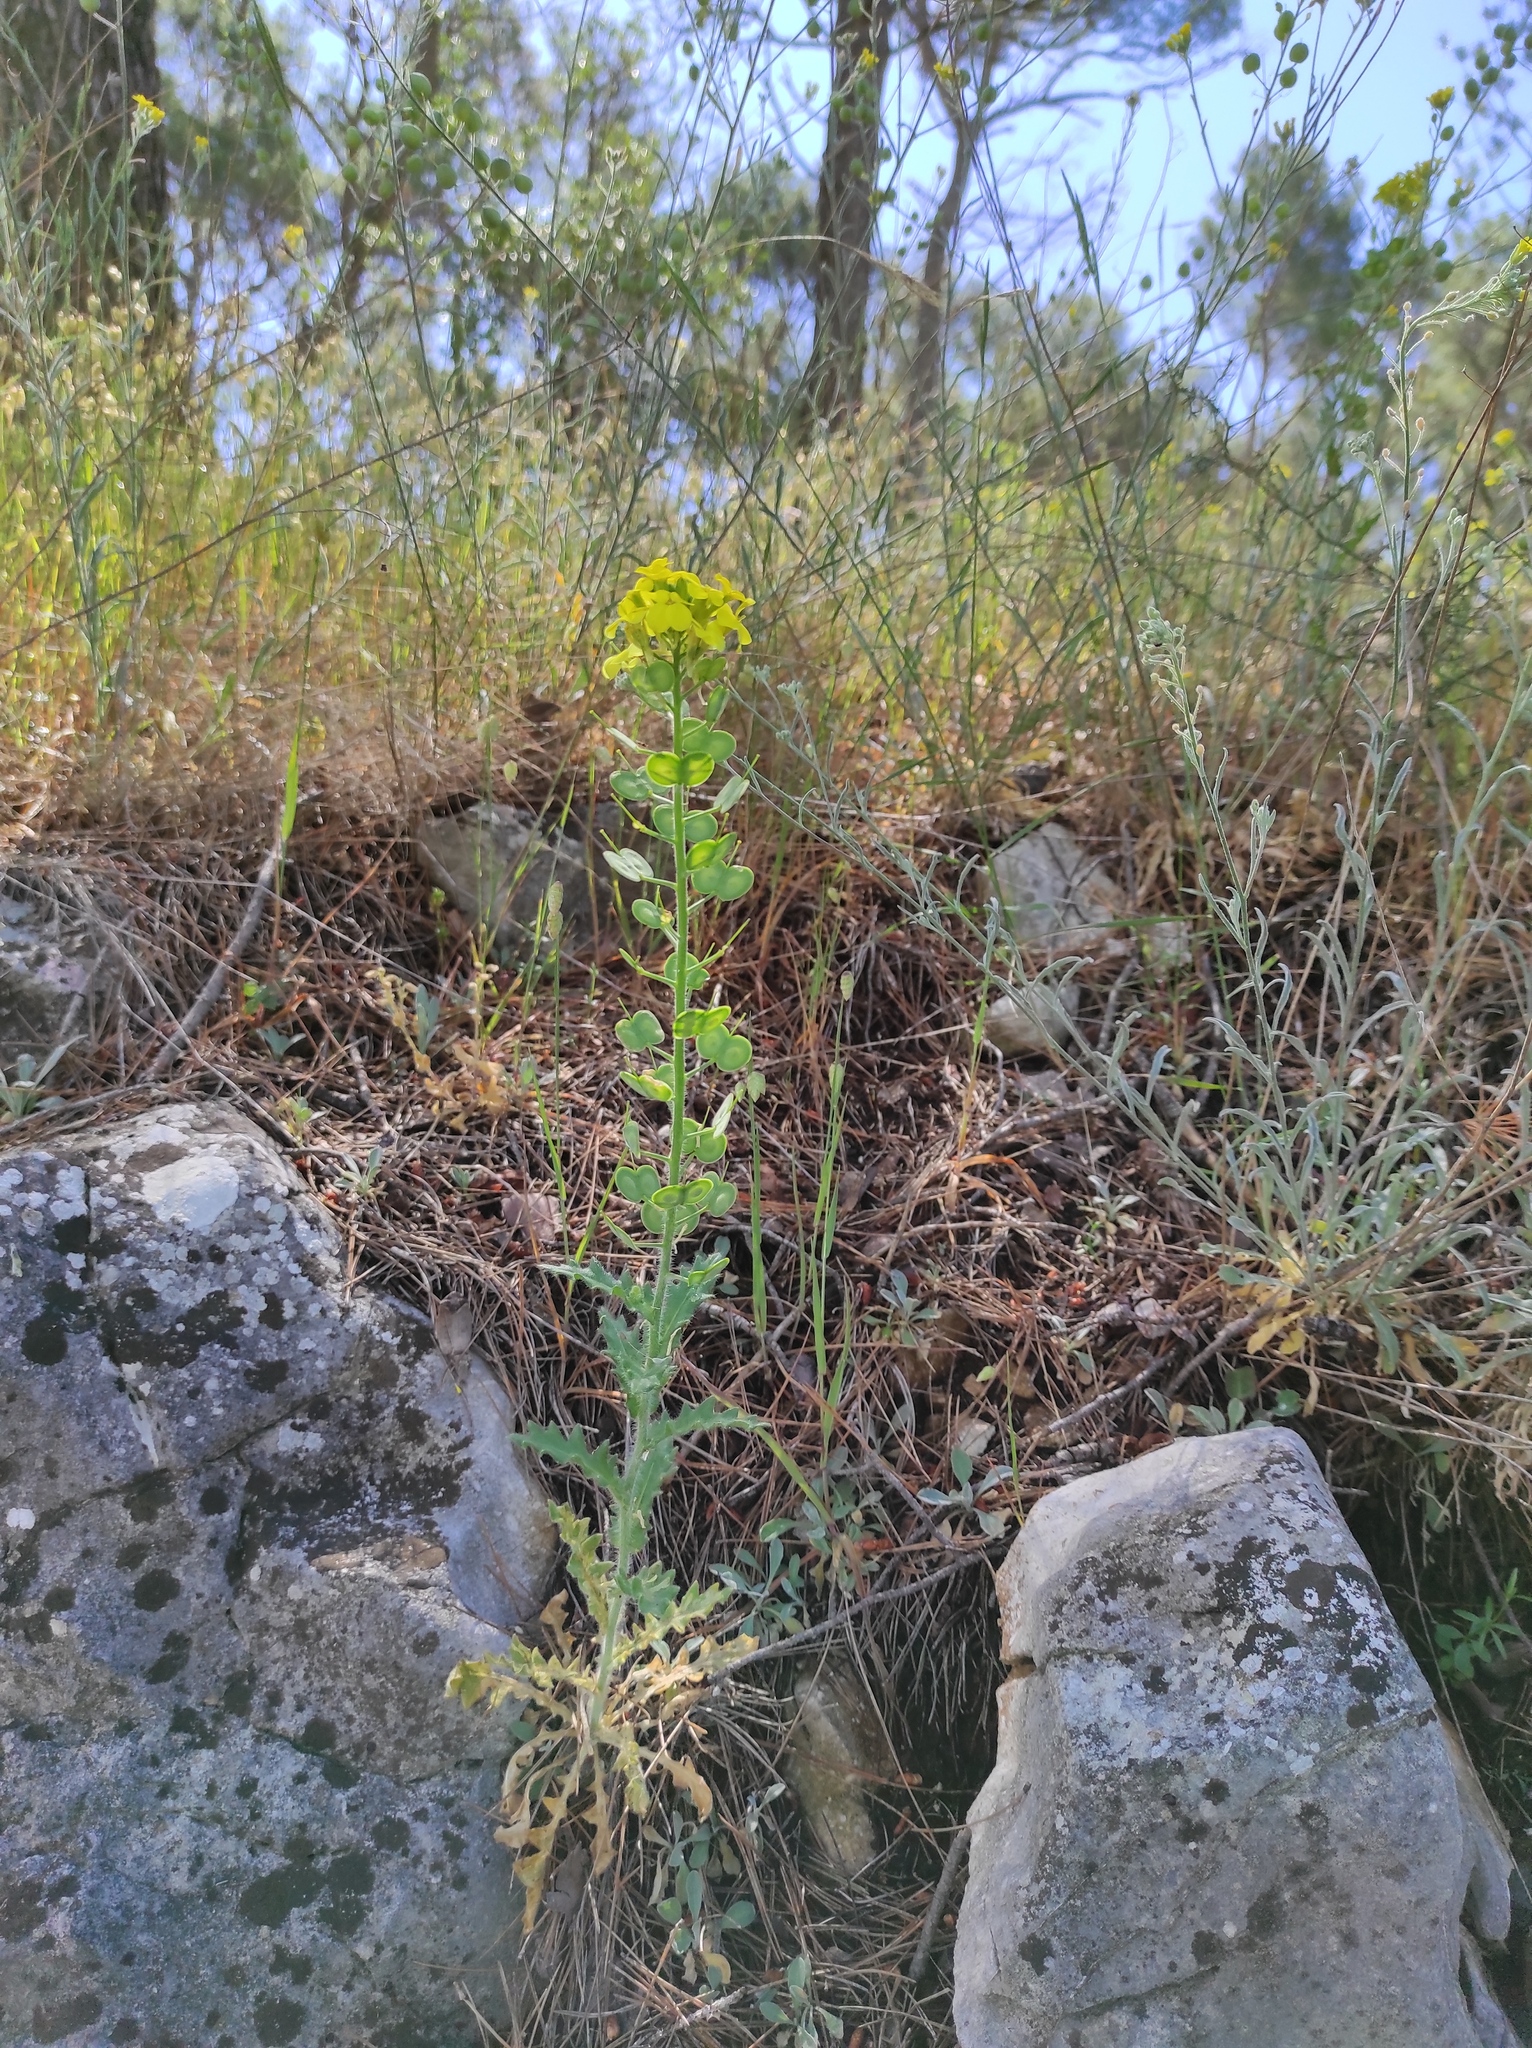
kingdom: Plantae
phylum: Tracheophyta
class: Magnoliopsida
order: Brassicales
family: Brassicaceae
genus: Biscutella
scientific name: Biscutella cichoriifolia
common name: Chicory-leaf buckler mustard
